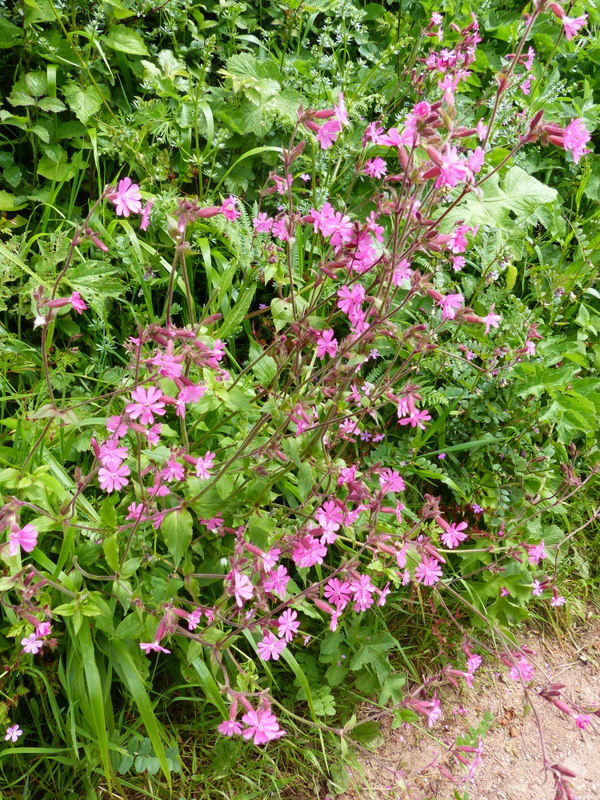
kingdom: Plantae
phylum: Tracheophyta
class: Magnoliopsida
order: Caryophyllales
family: Caryophyllaceae
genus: Silene
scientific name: Silene dioica
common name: Red campion
